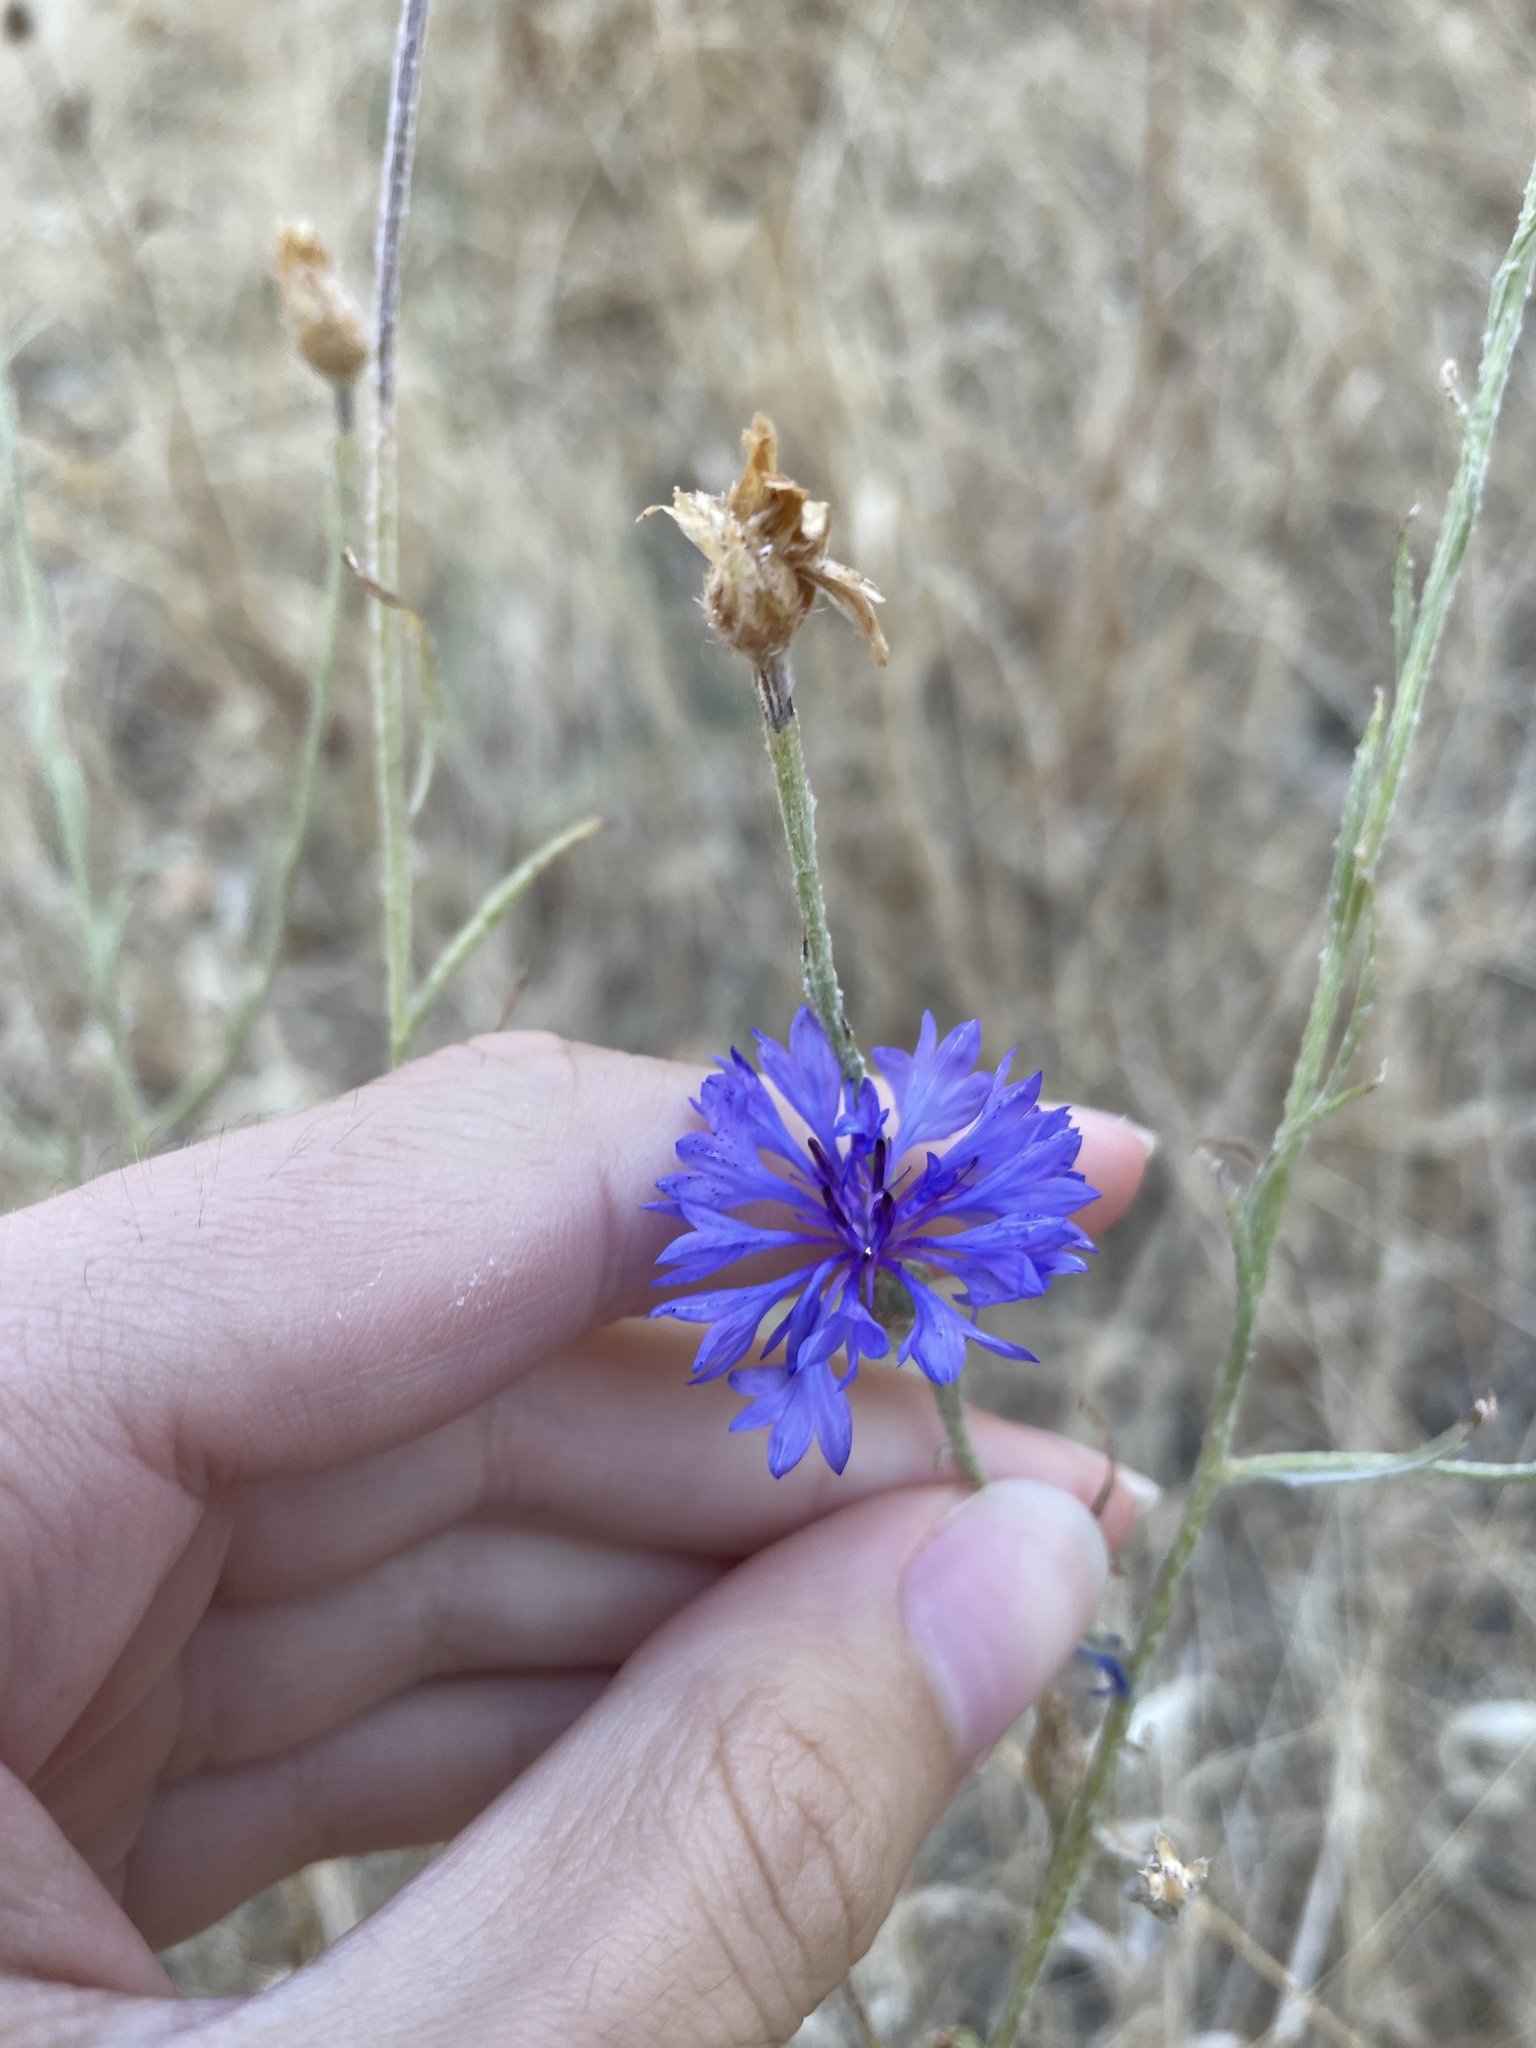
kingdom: Plantae
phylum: Tracheophyta
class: Magnoliopsida
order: Asterales
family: Asteraceae
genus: Centaurea
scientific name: Centaurea cyanus
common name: Cornflower
